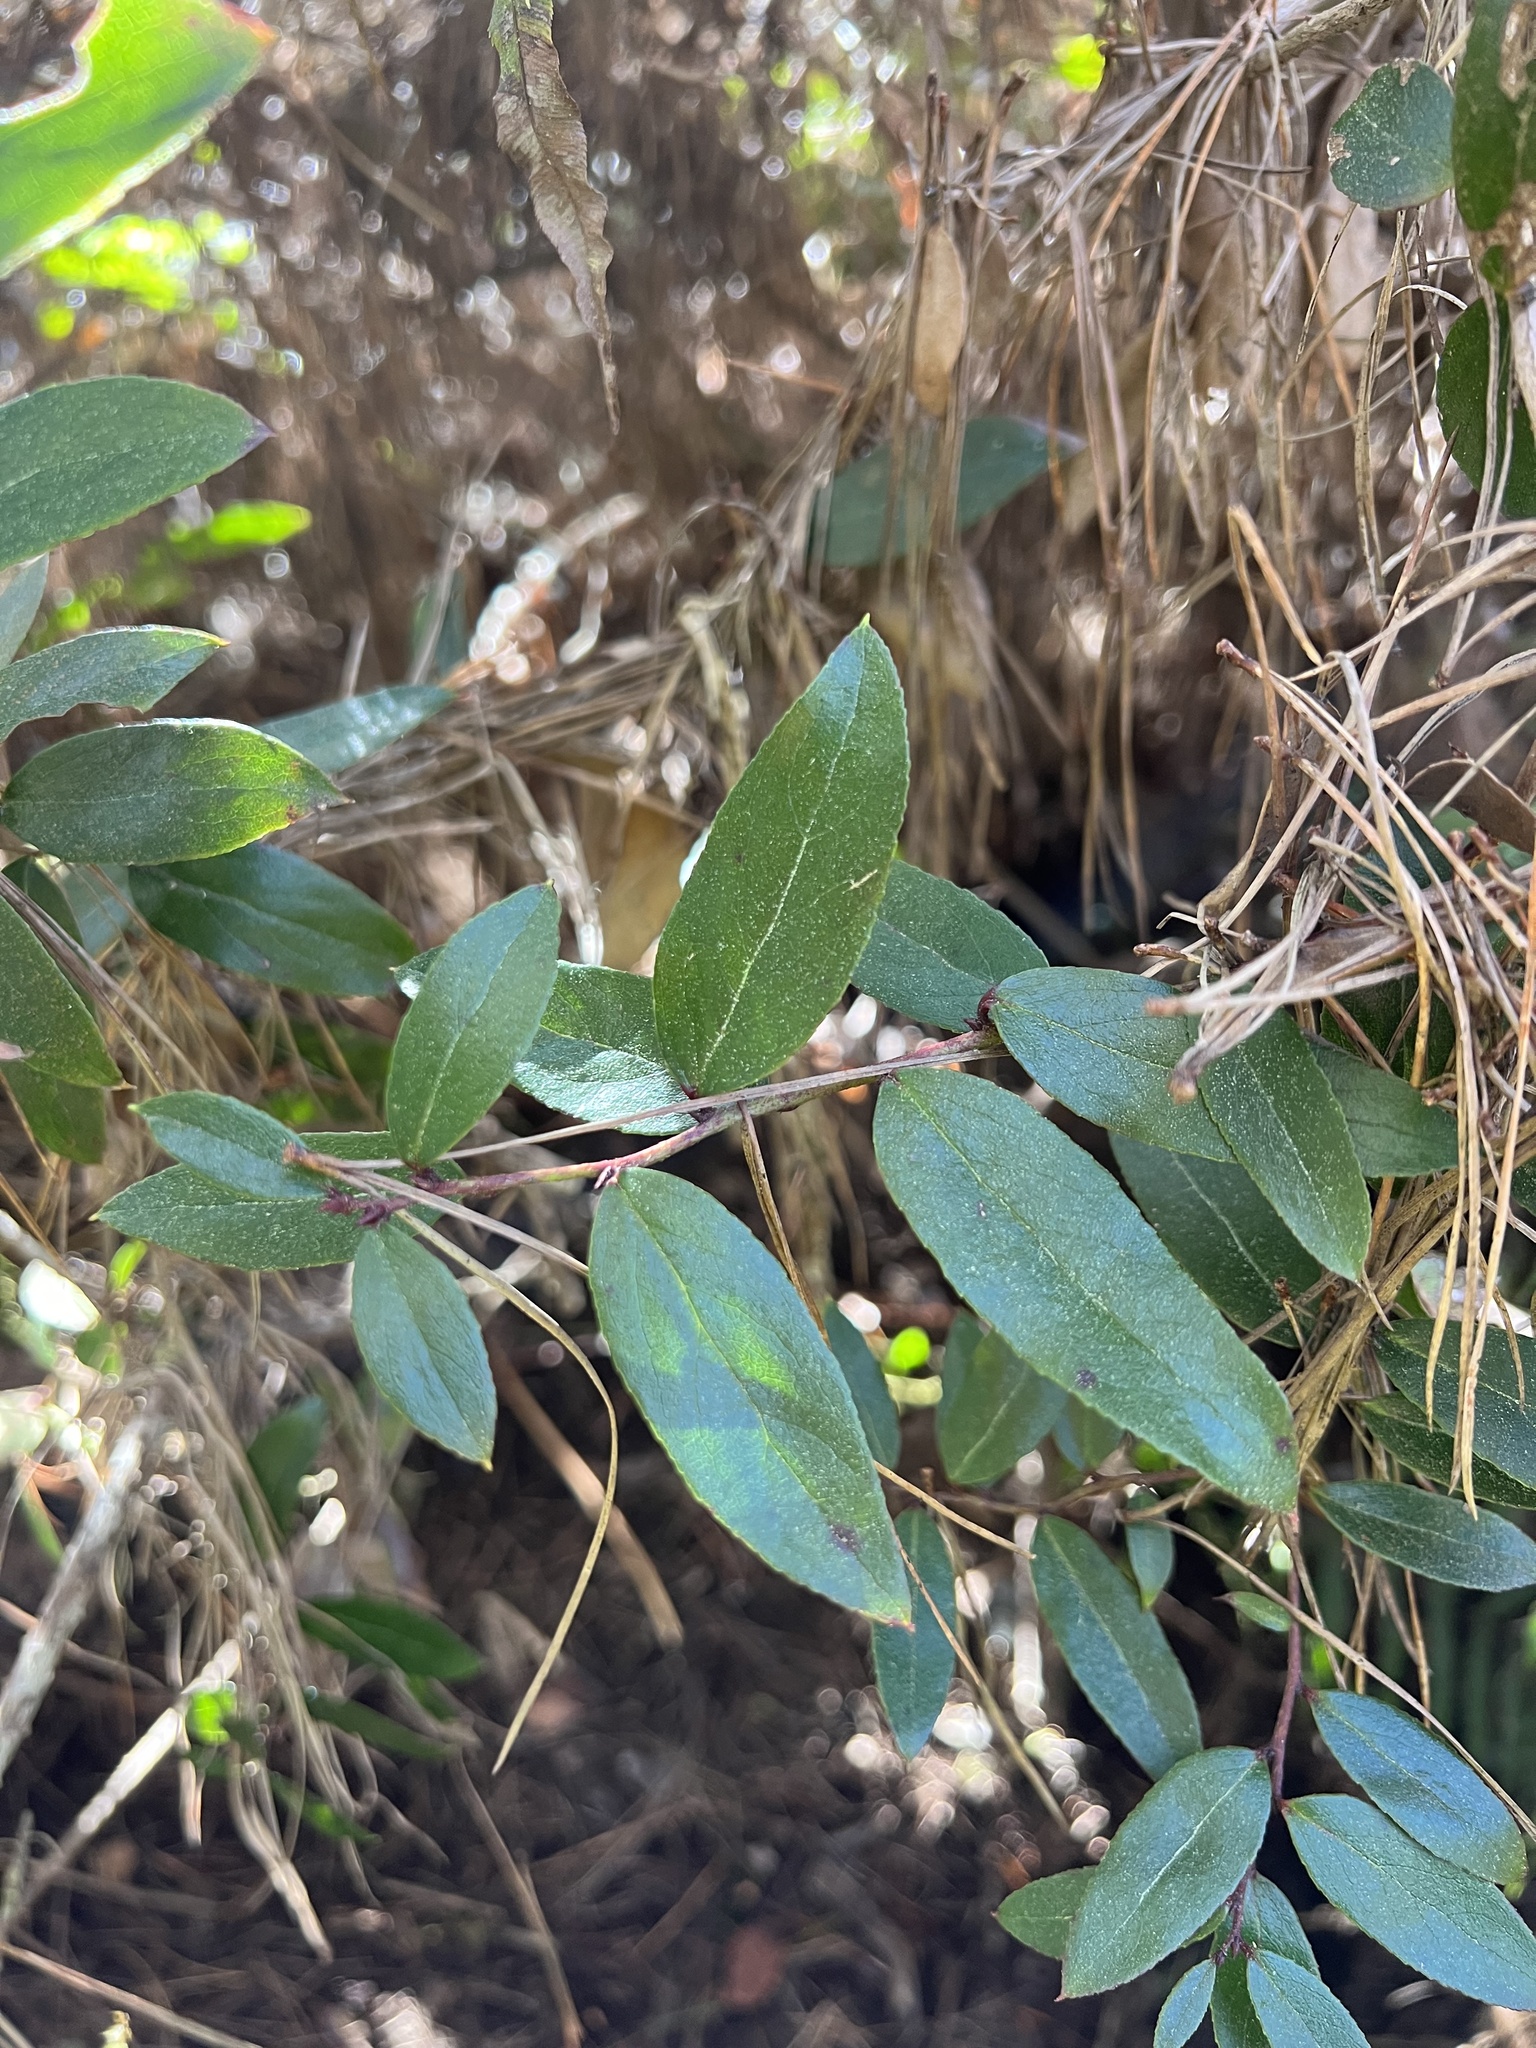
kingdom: Plantae
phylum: Tracheophyta
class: Magnoliopsida
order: Ericales
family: Ericaceae
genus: Gaultheria
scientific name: Gaultheria paniculata
